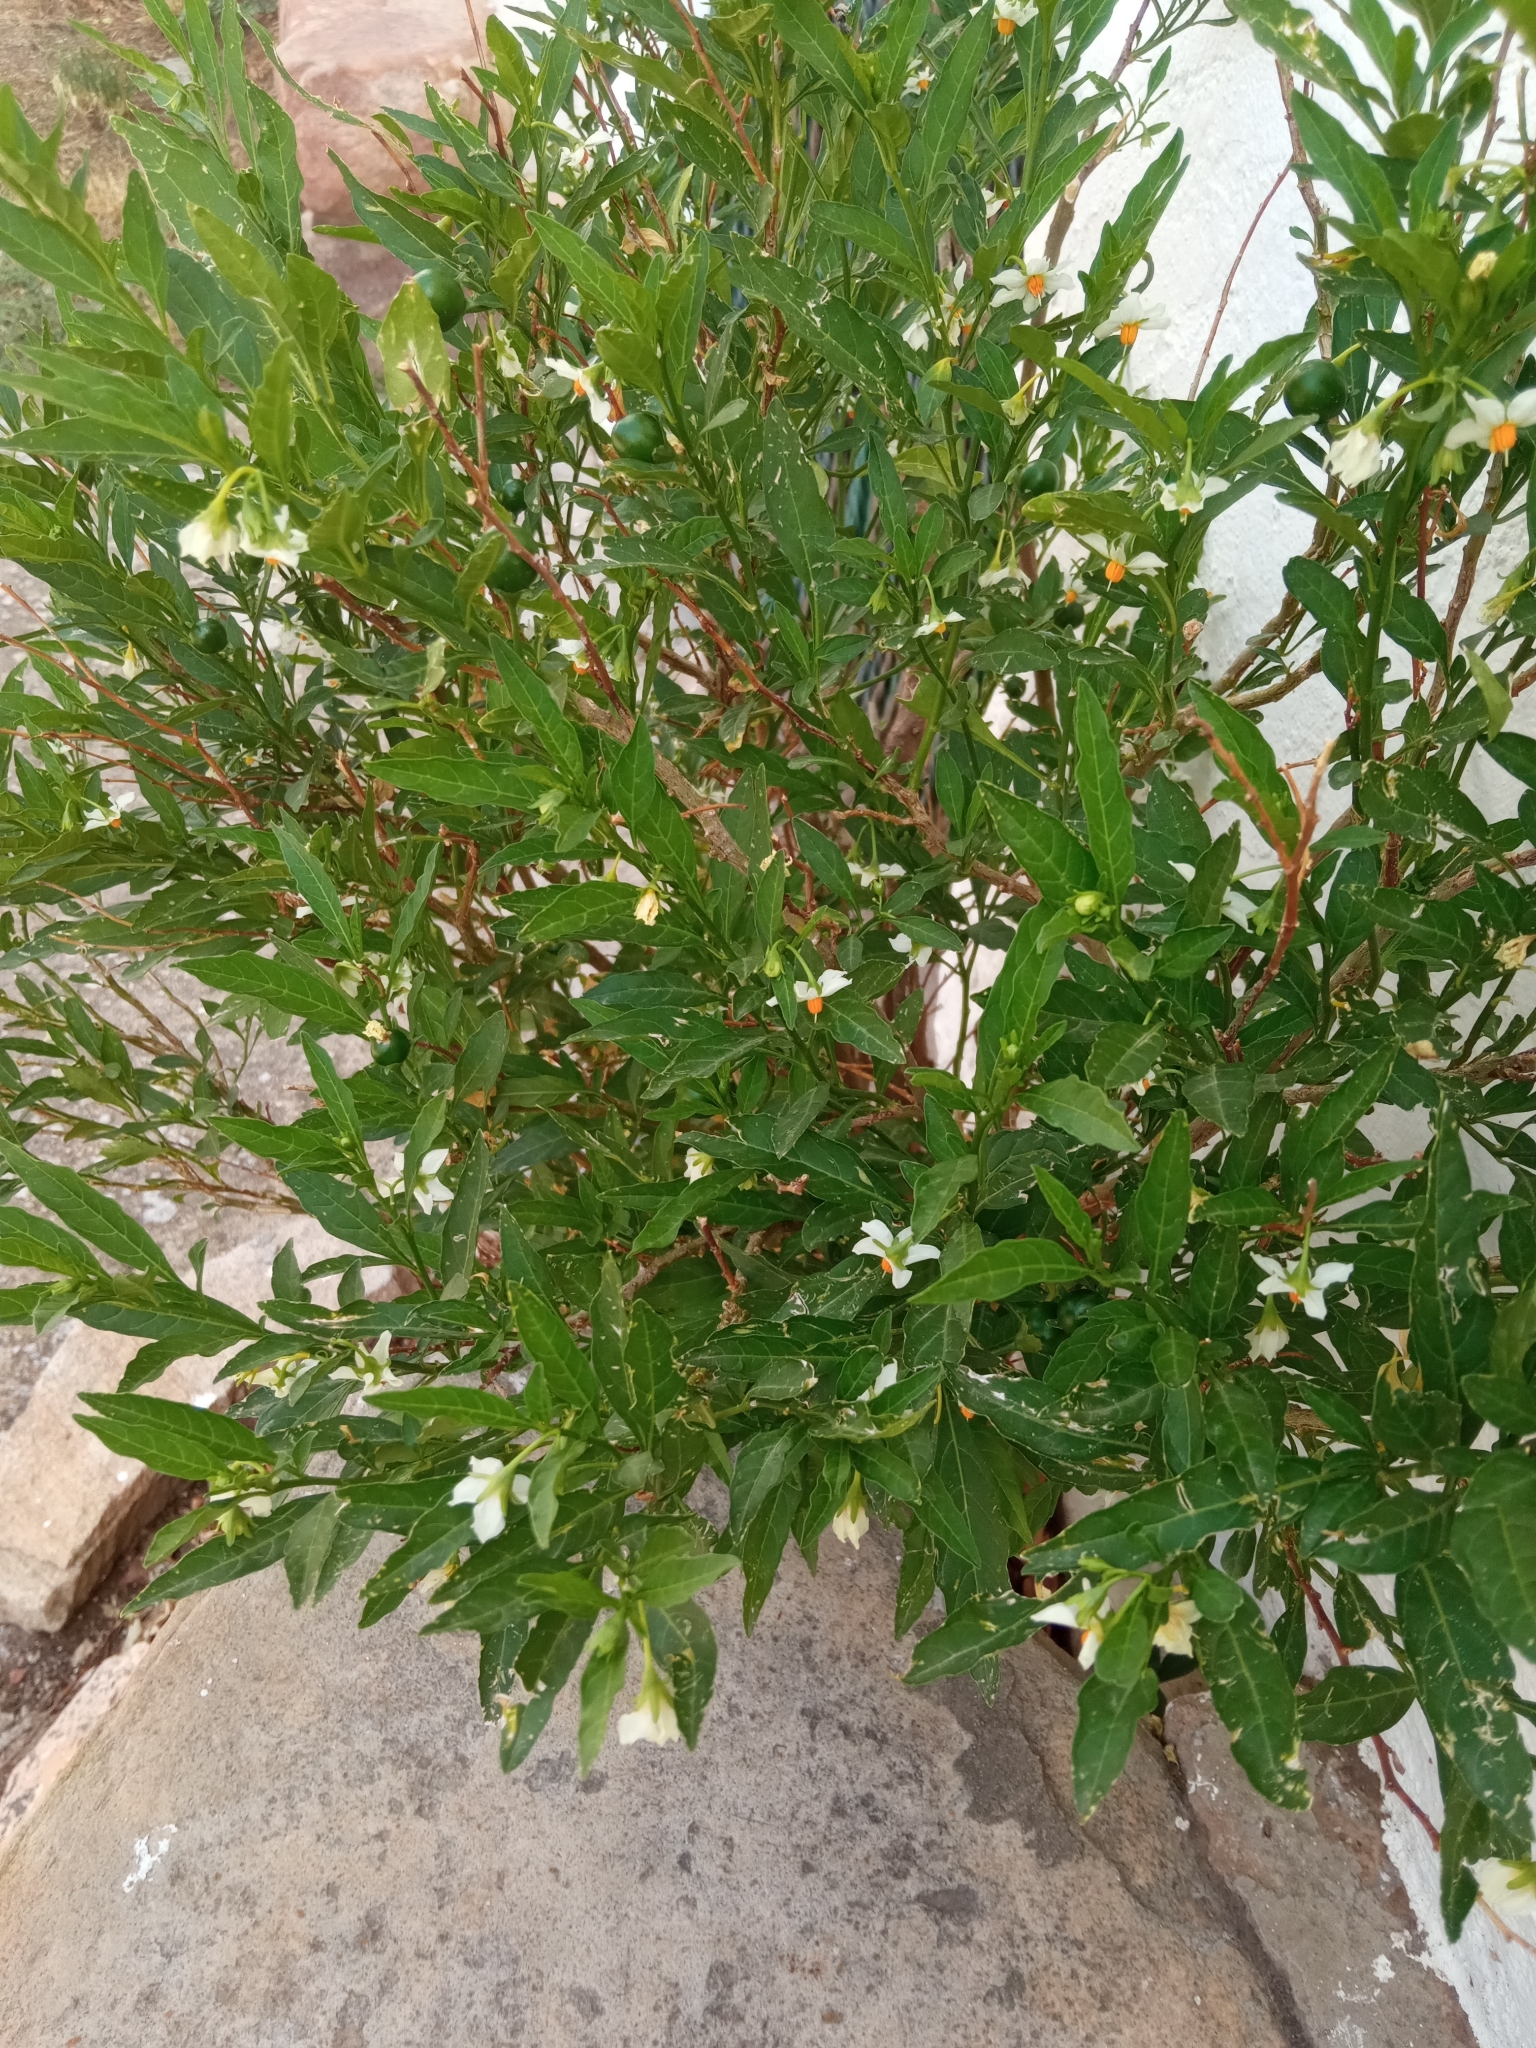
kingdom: Plantae
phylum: Tracheophyta
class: Magnoliopsida
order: Solanales
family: Solanaceae
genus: Solanum
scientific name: Solanum pseudocapsicum
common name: Jerusalem cherry
